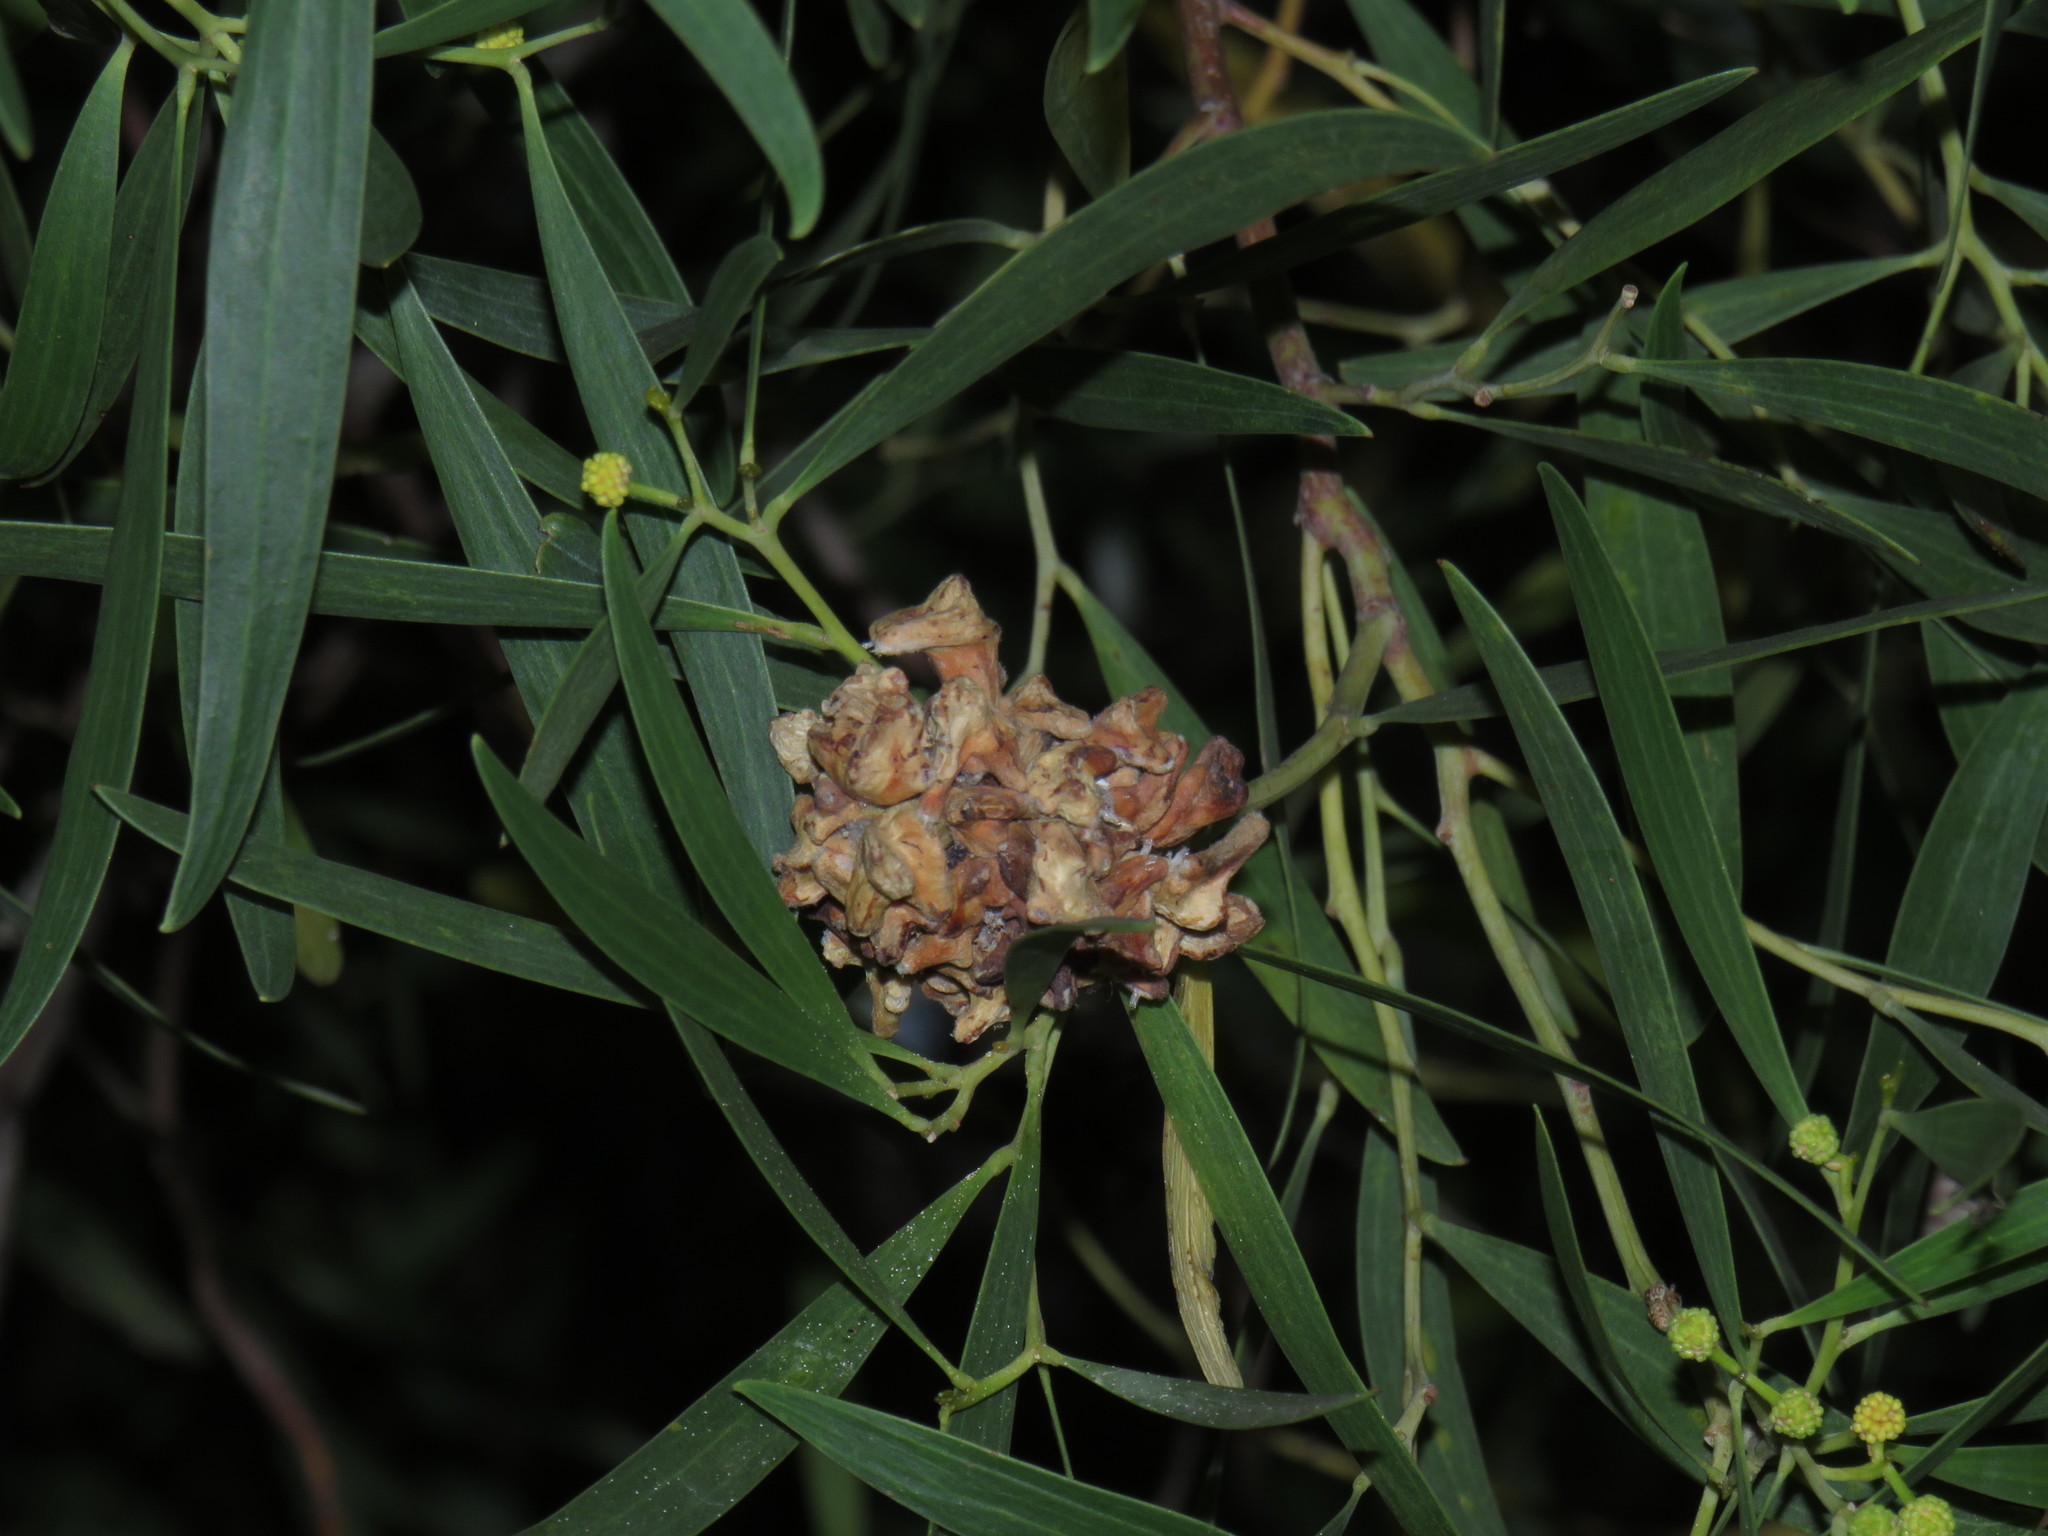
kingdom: Animalia
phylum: Arthropoda
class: Insecta
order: Diptera
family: Cecidomyiidae
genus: Dasineura
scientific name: Dasineura dielsi
